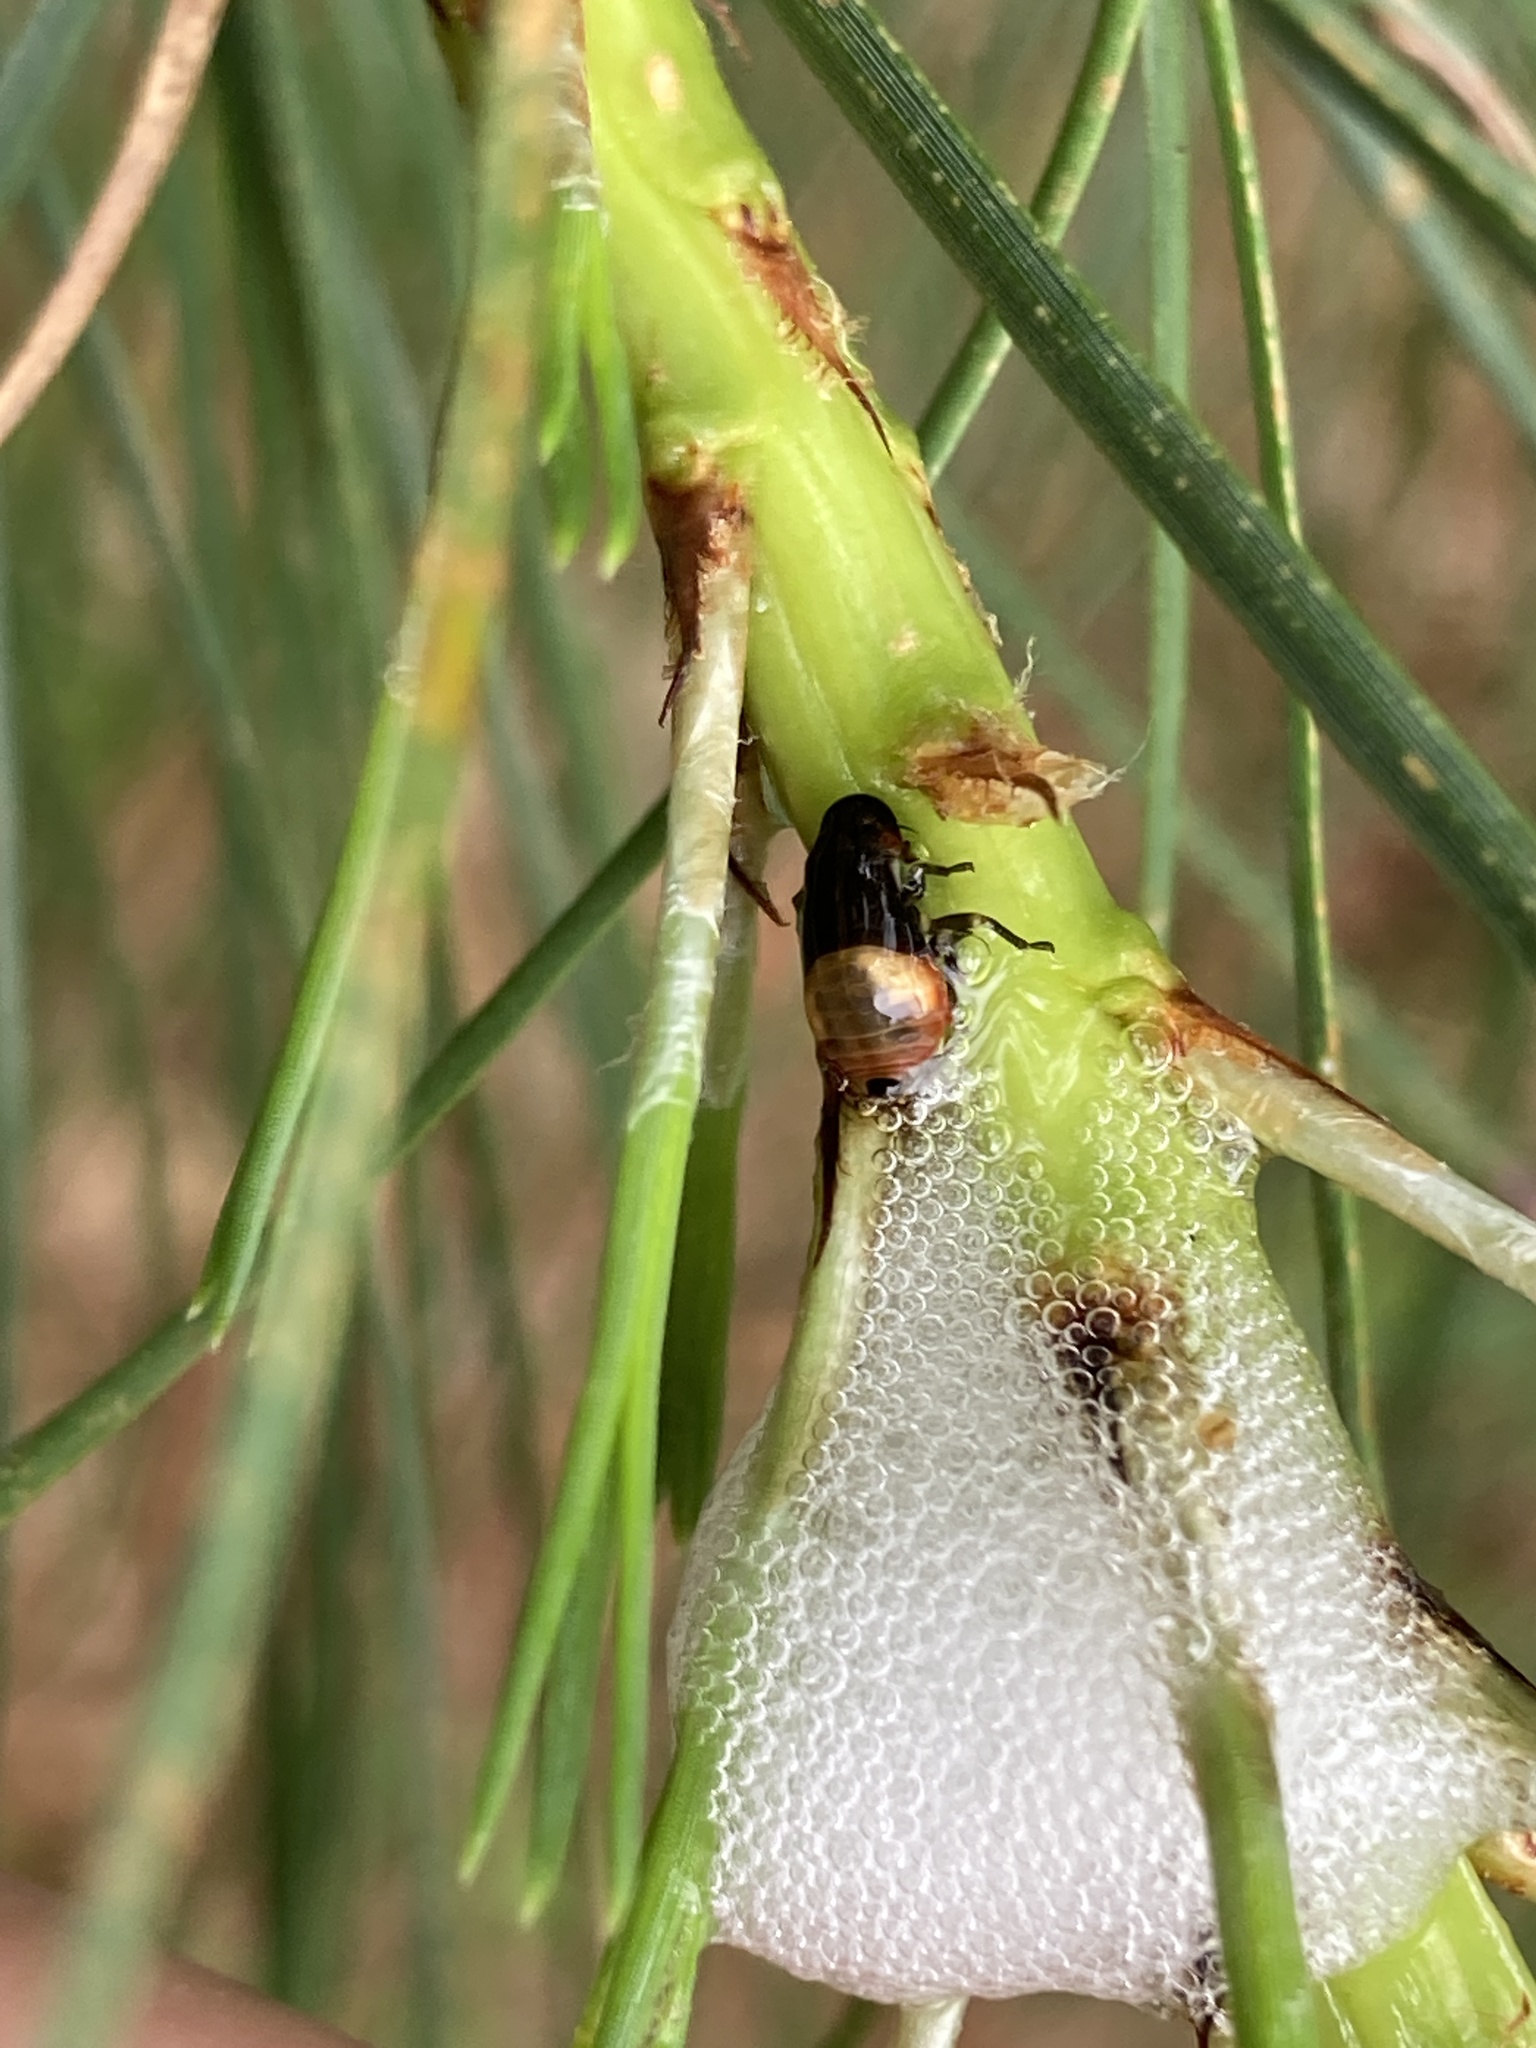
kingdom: Animalia
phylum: Arthropoda
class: Insecta
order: Hemiptera
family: Epipygidae
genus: Epipyga
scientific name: Epipyga cribrata
